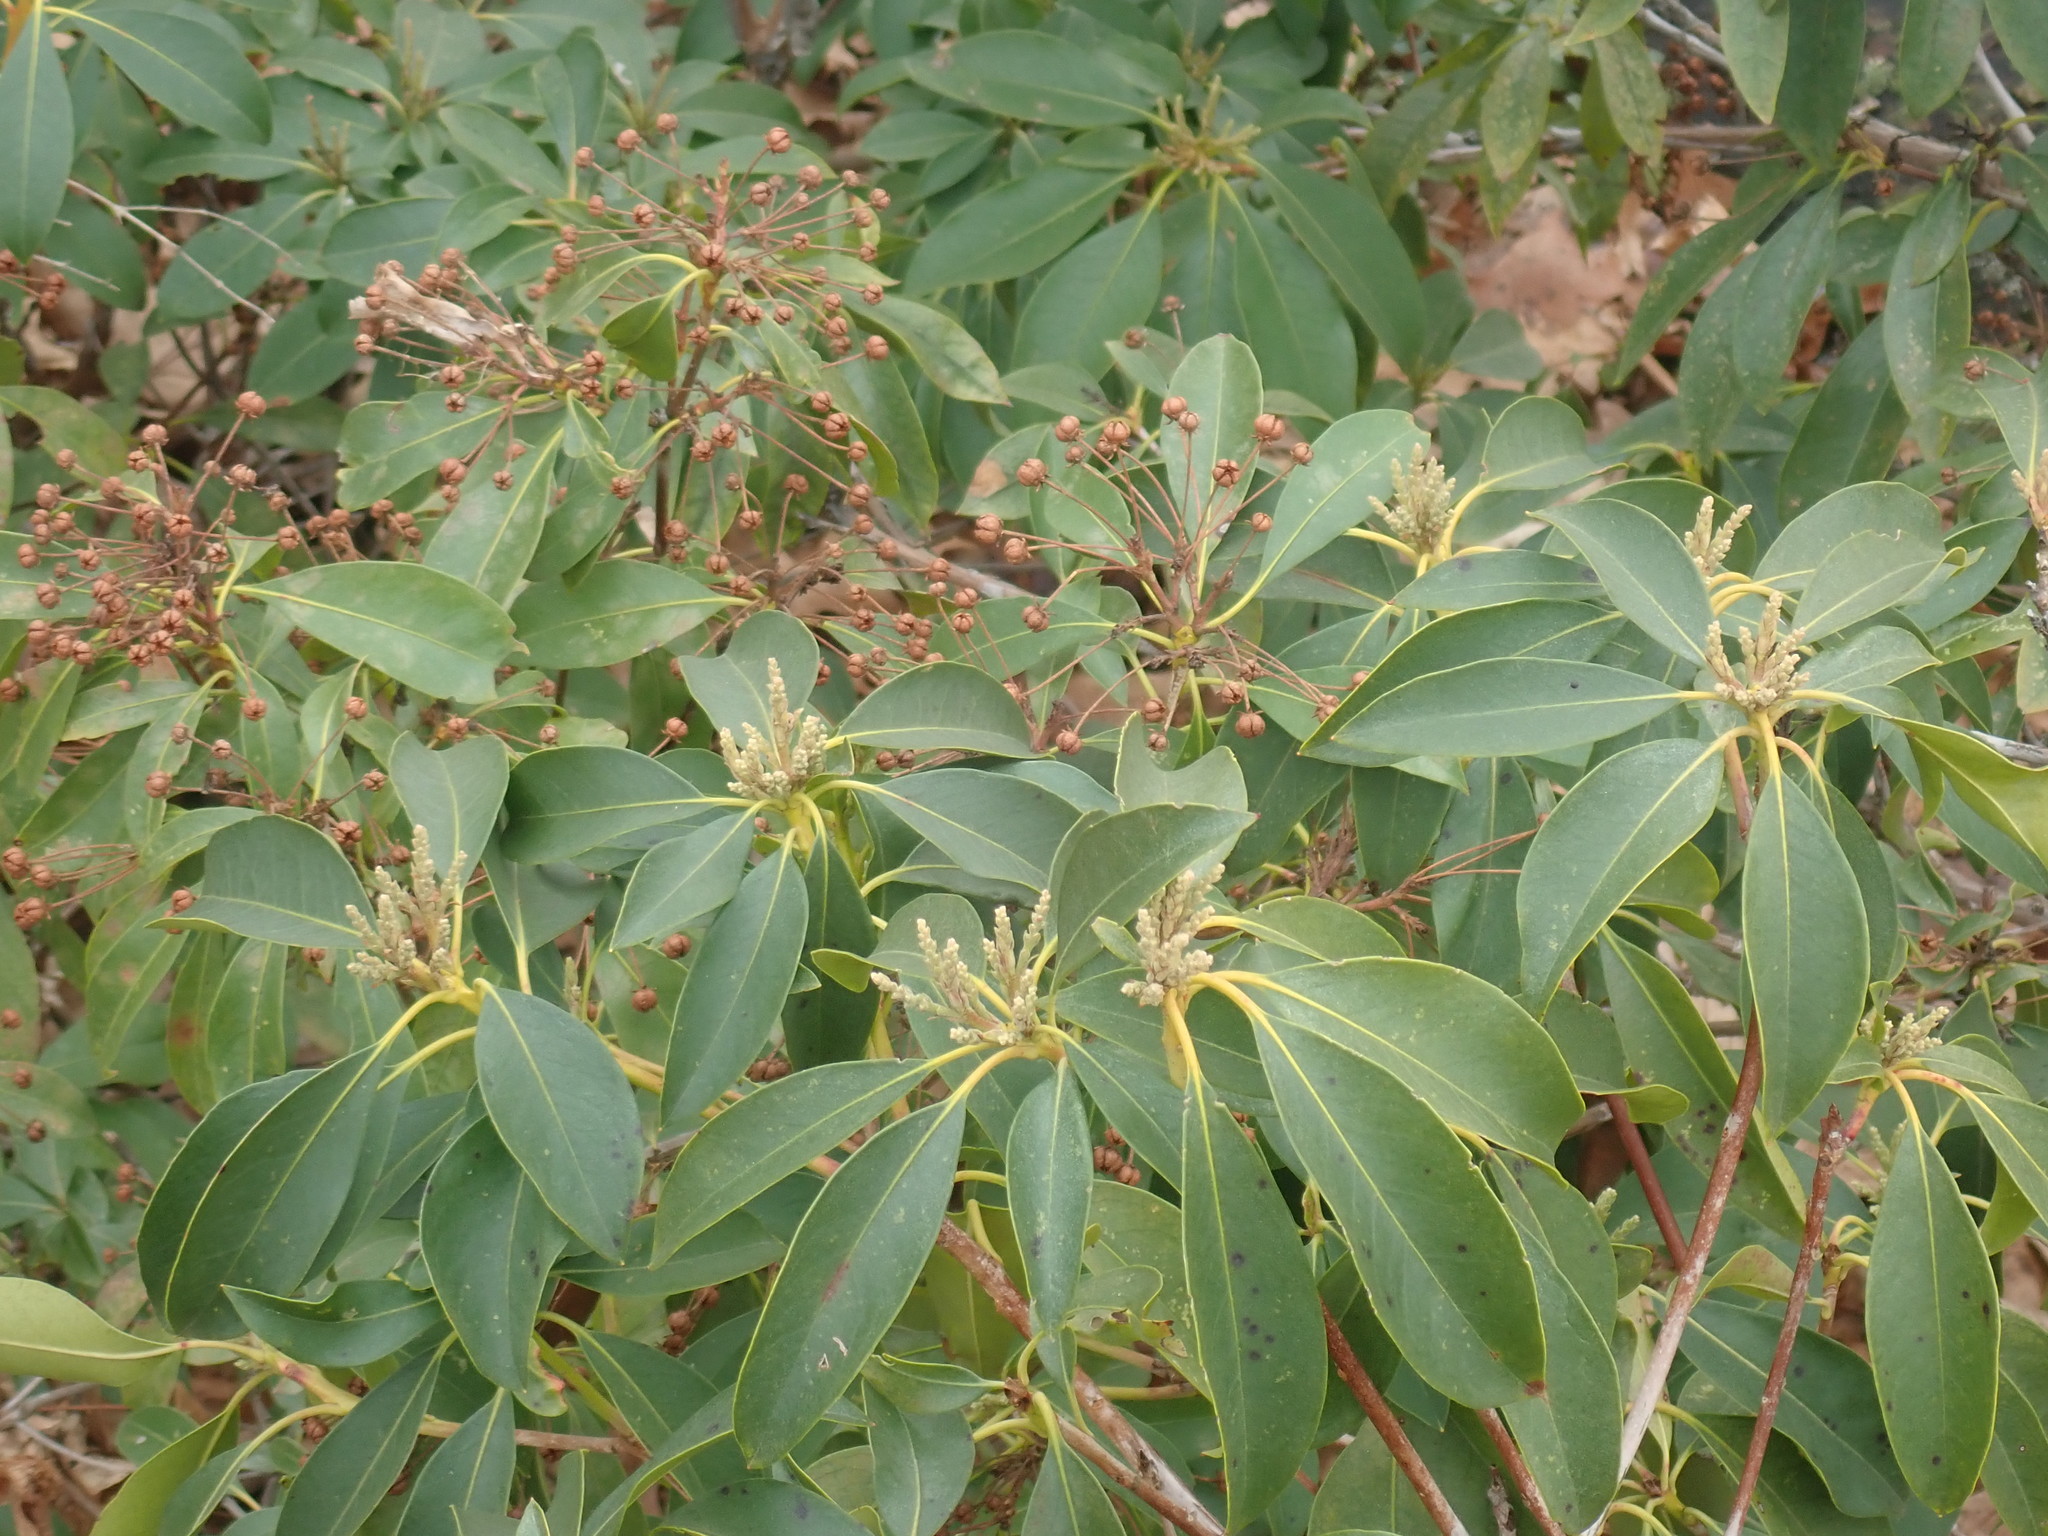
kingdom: Plantae
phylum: Tracheophyta
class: Magnoliopsida
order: Ericales
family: Ericaceae
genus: Kalmia
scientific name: Kalmia latifolia
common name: Mountain-laurel
